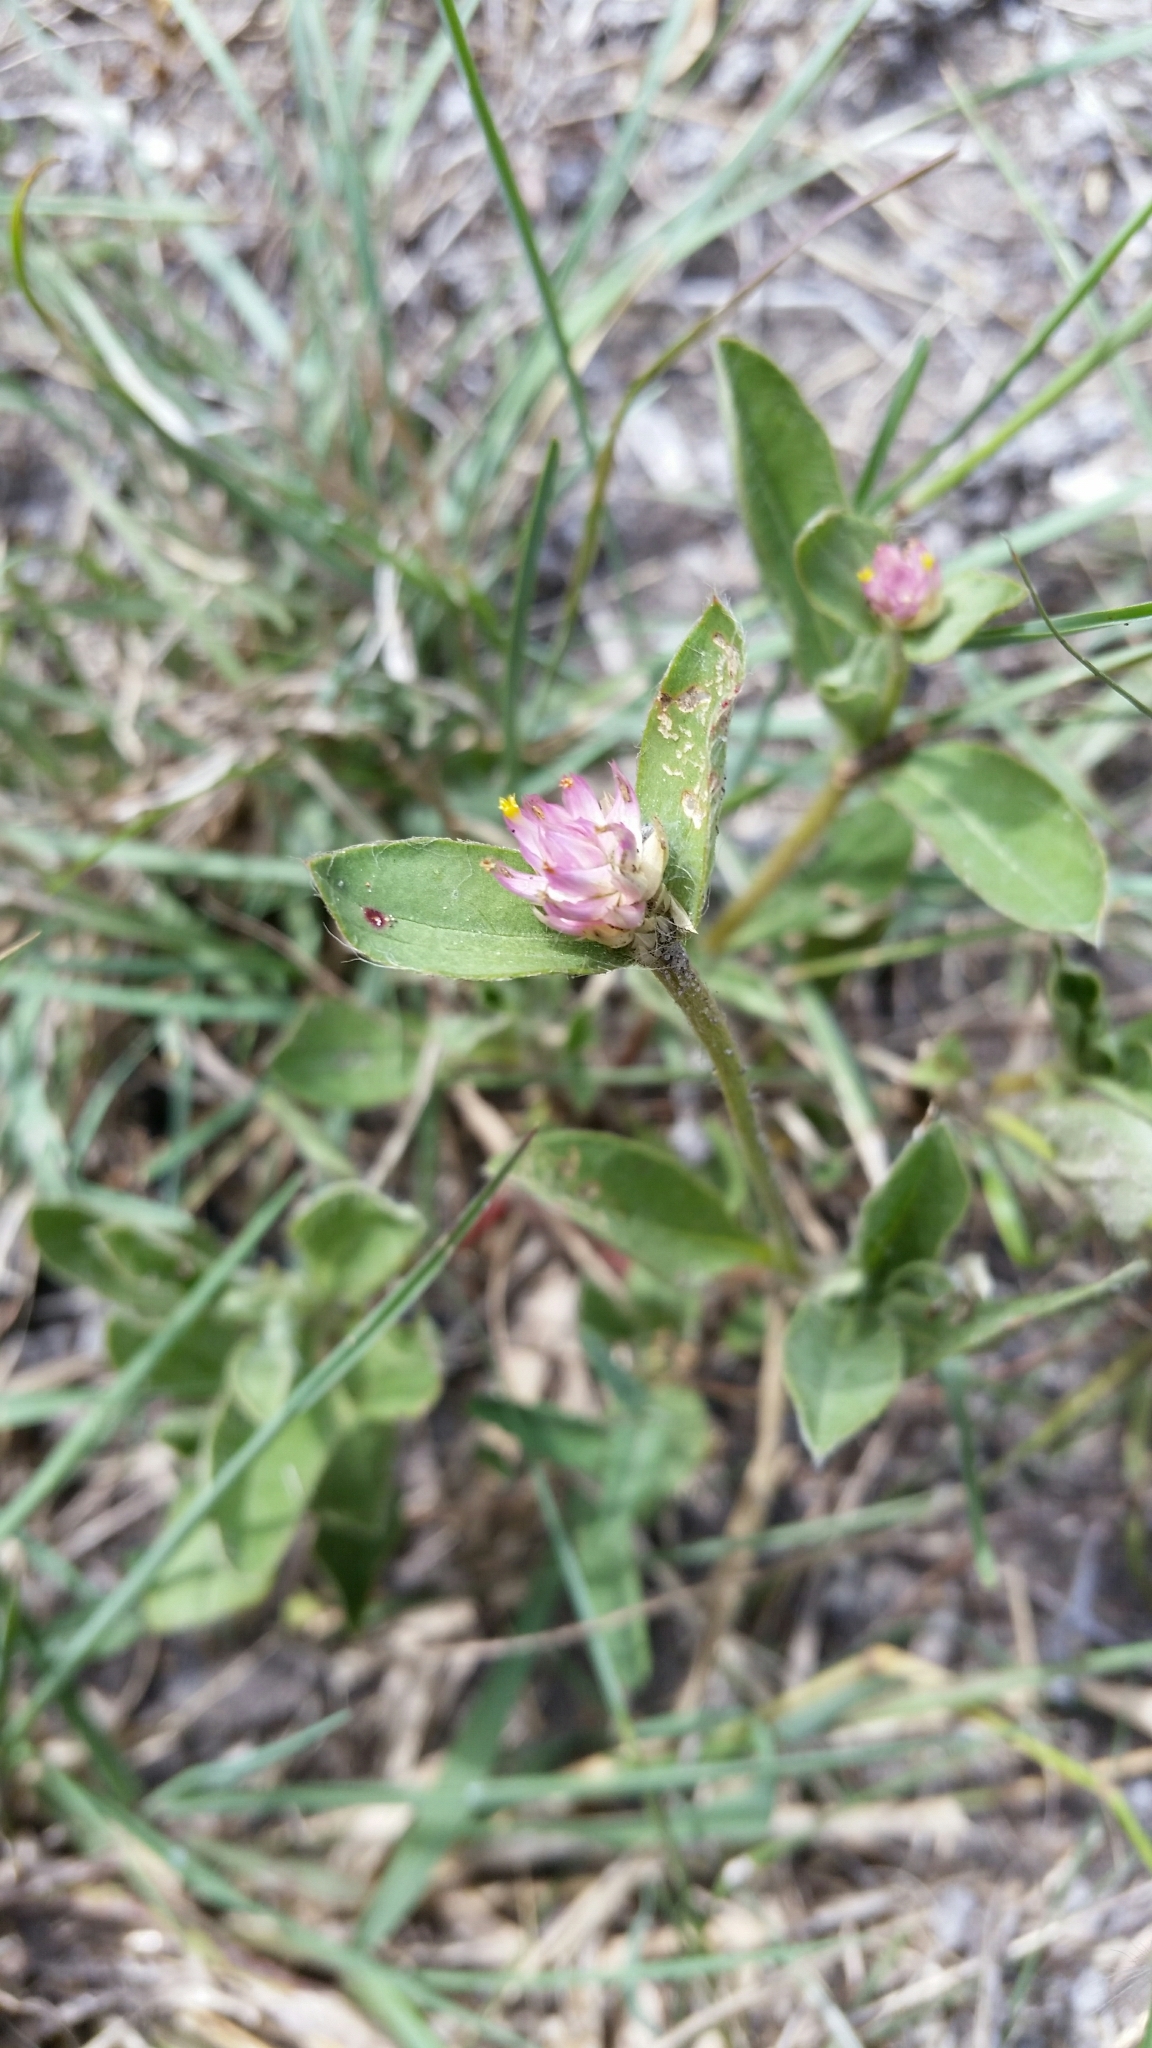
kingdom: Plantae
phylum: Tracheophyta
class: Magnoliopsida
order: Caryophyllales
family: Amaranthaceae
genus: Gomphrena
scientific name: Gomphrena serrata
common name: Arrasa con todo
